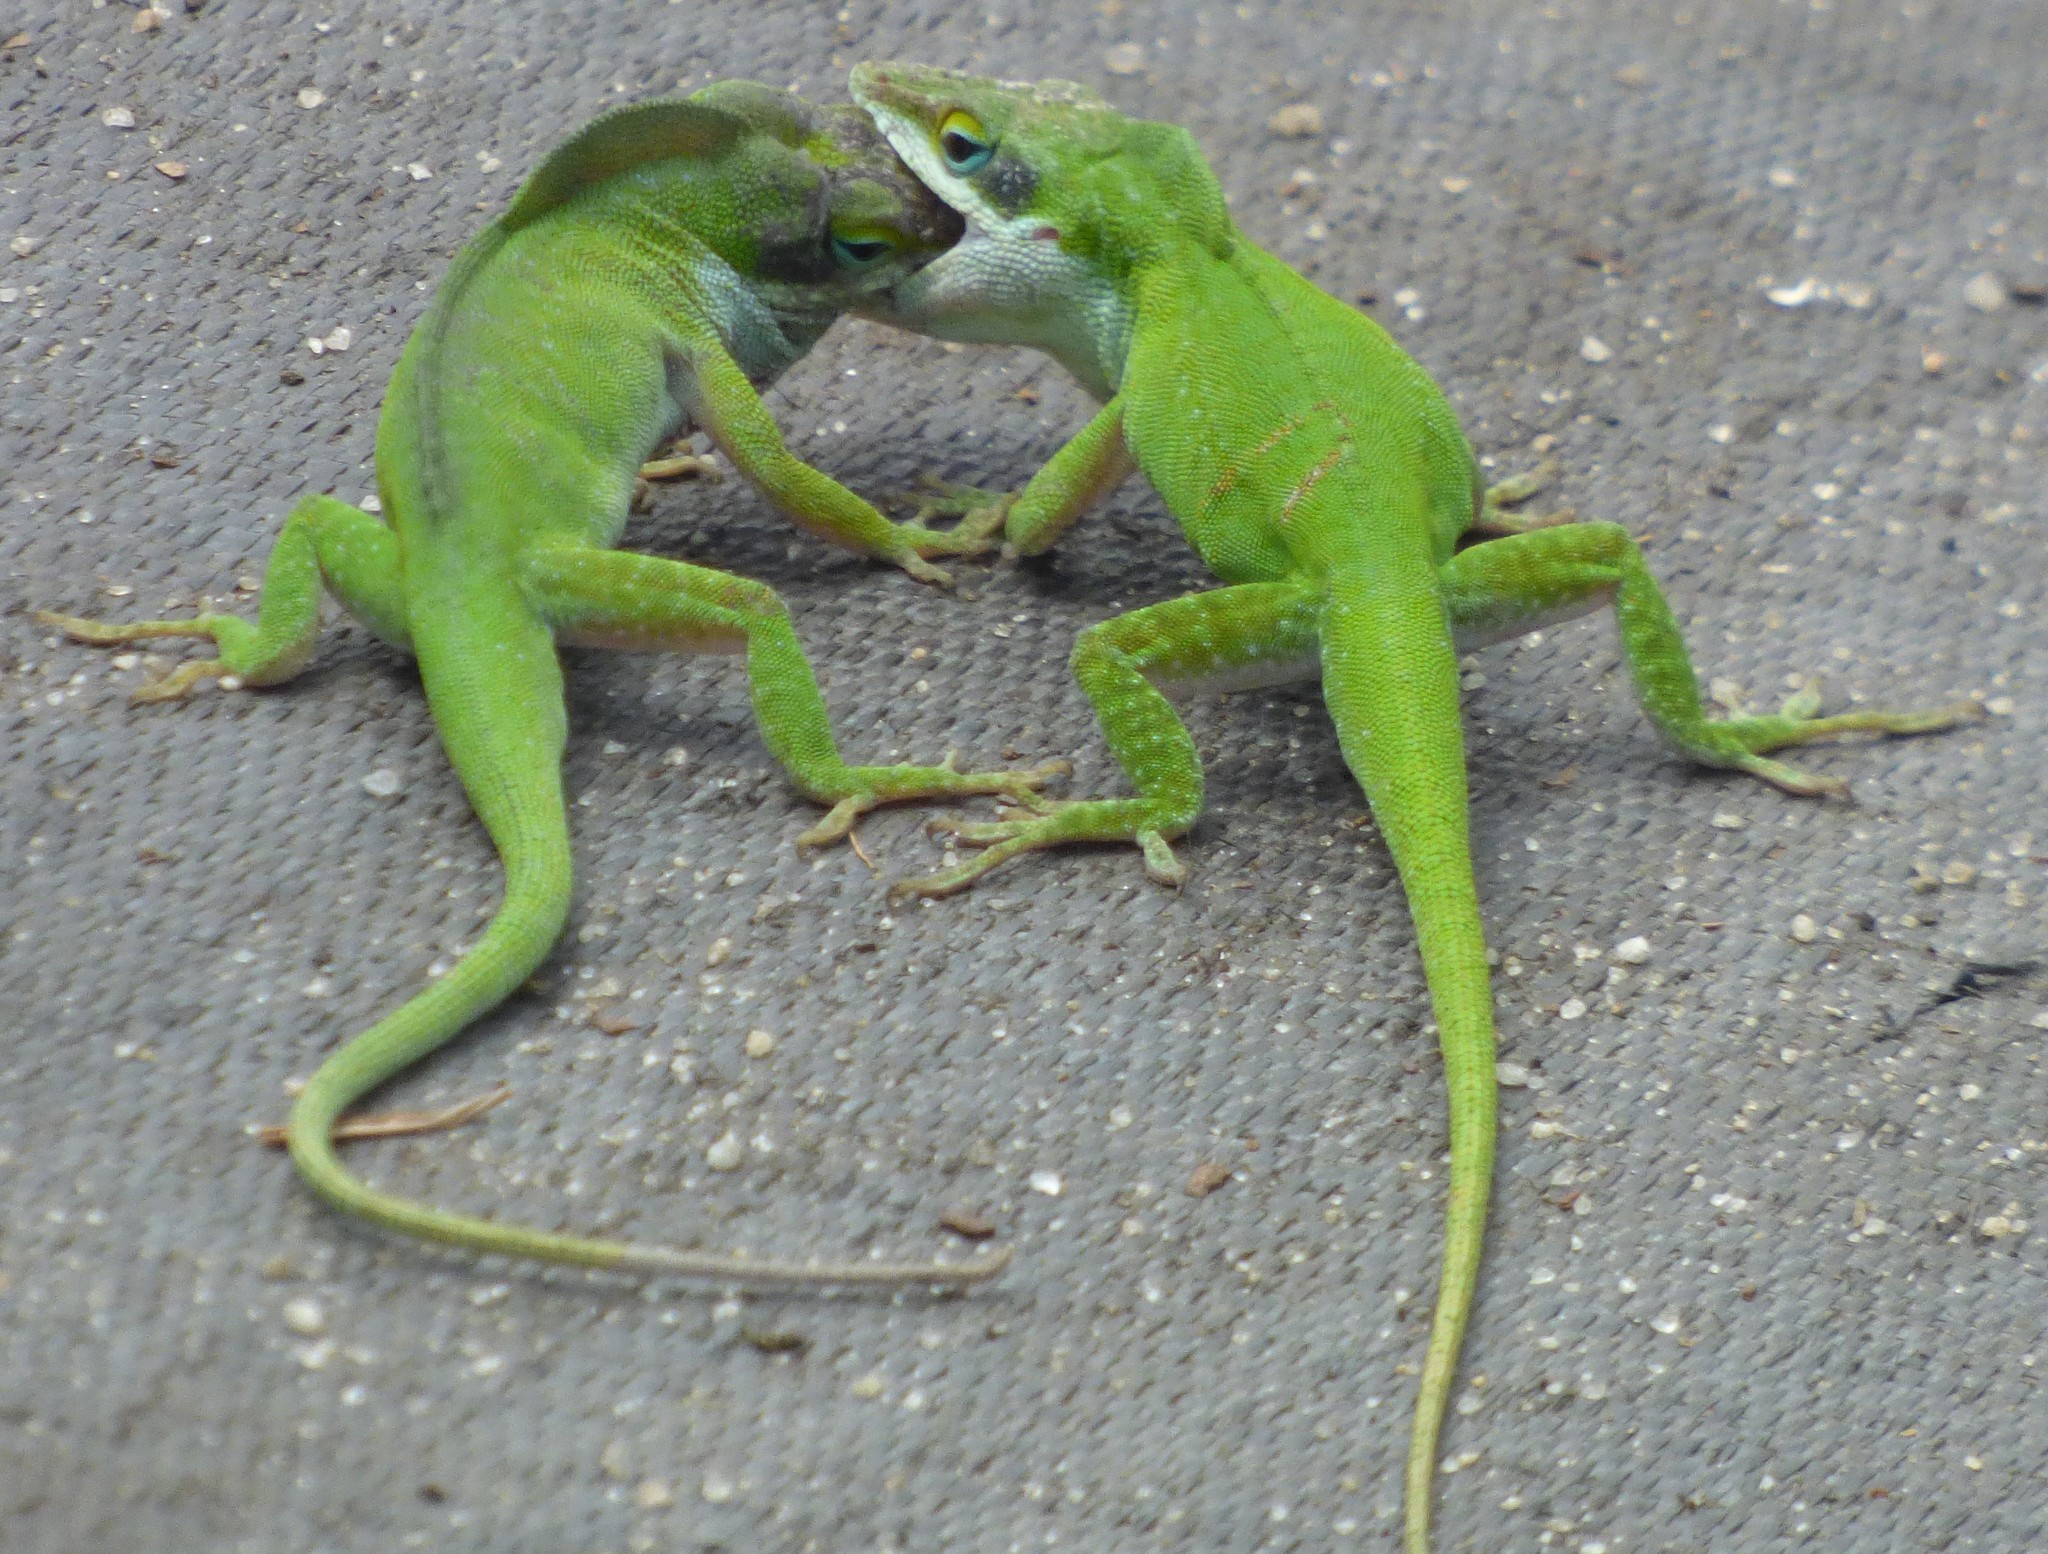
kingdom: Animalia
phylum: Chordata
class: Squamata
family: Dactyloidae
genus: Anolis
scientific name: Anolis carolinensis
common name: Green anole
